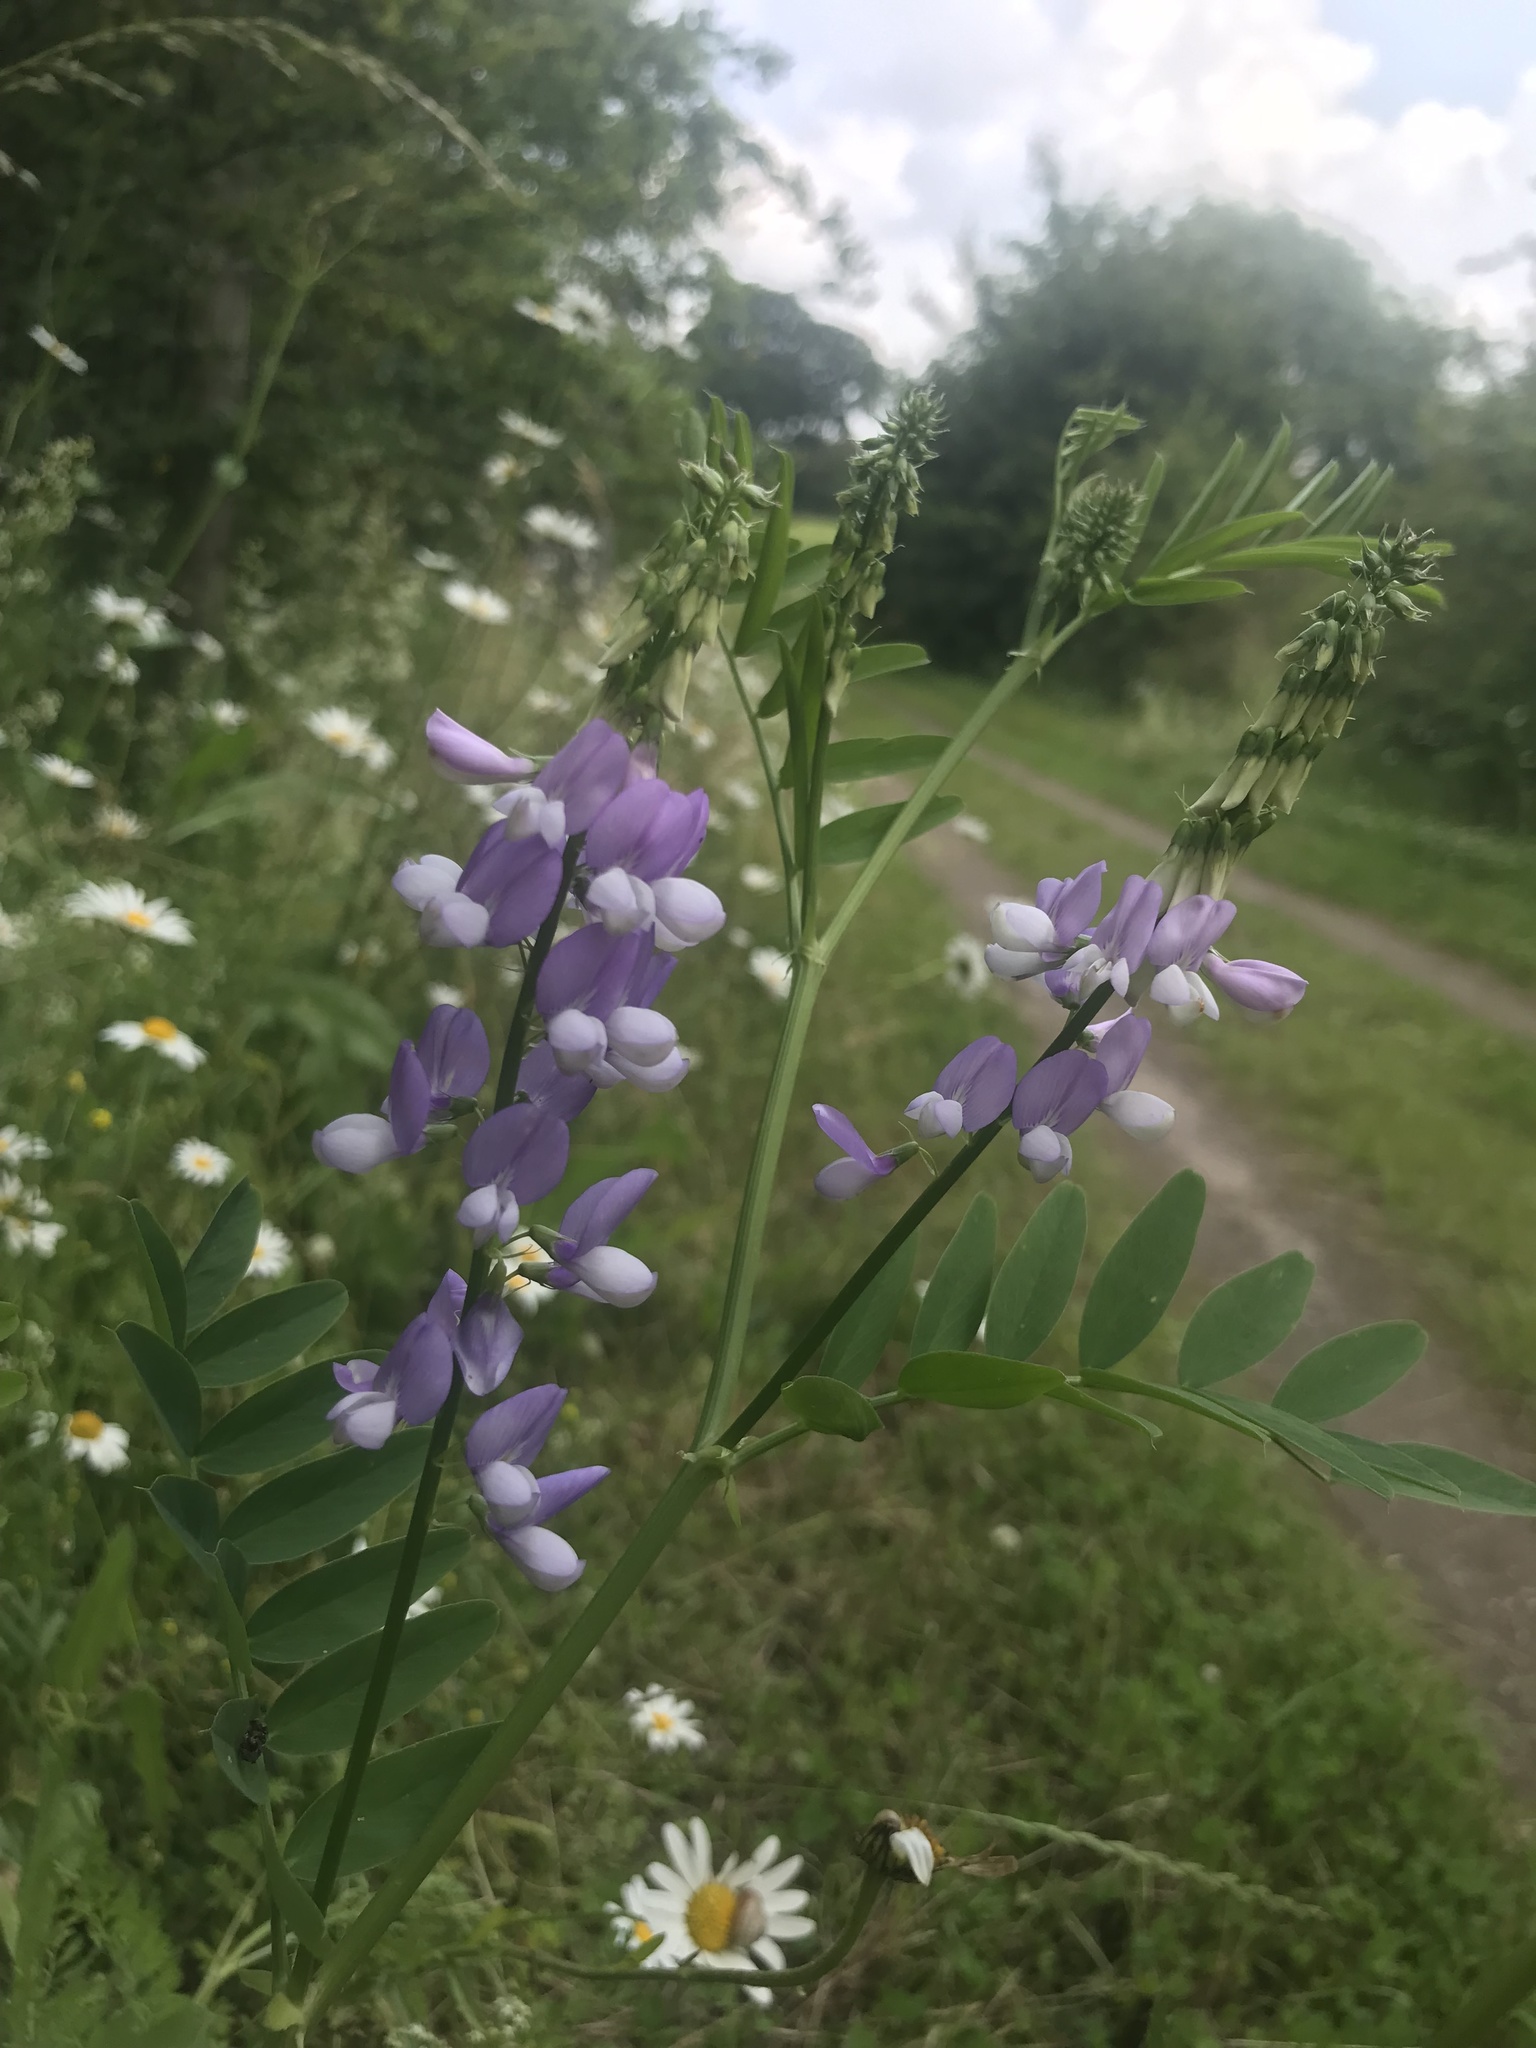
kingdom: Plantae
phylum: Tracheophyta
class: Magnoliopsida
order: Fabales
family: Fabaceae
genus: Galega
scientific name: Galega officinalis
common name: Goat's-rue
